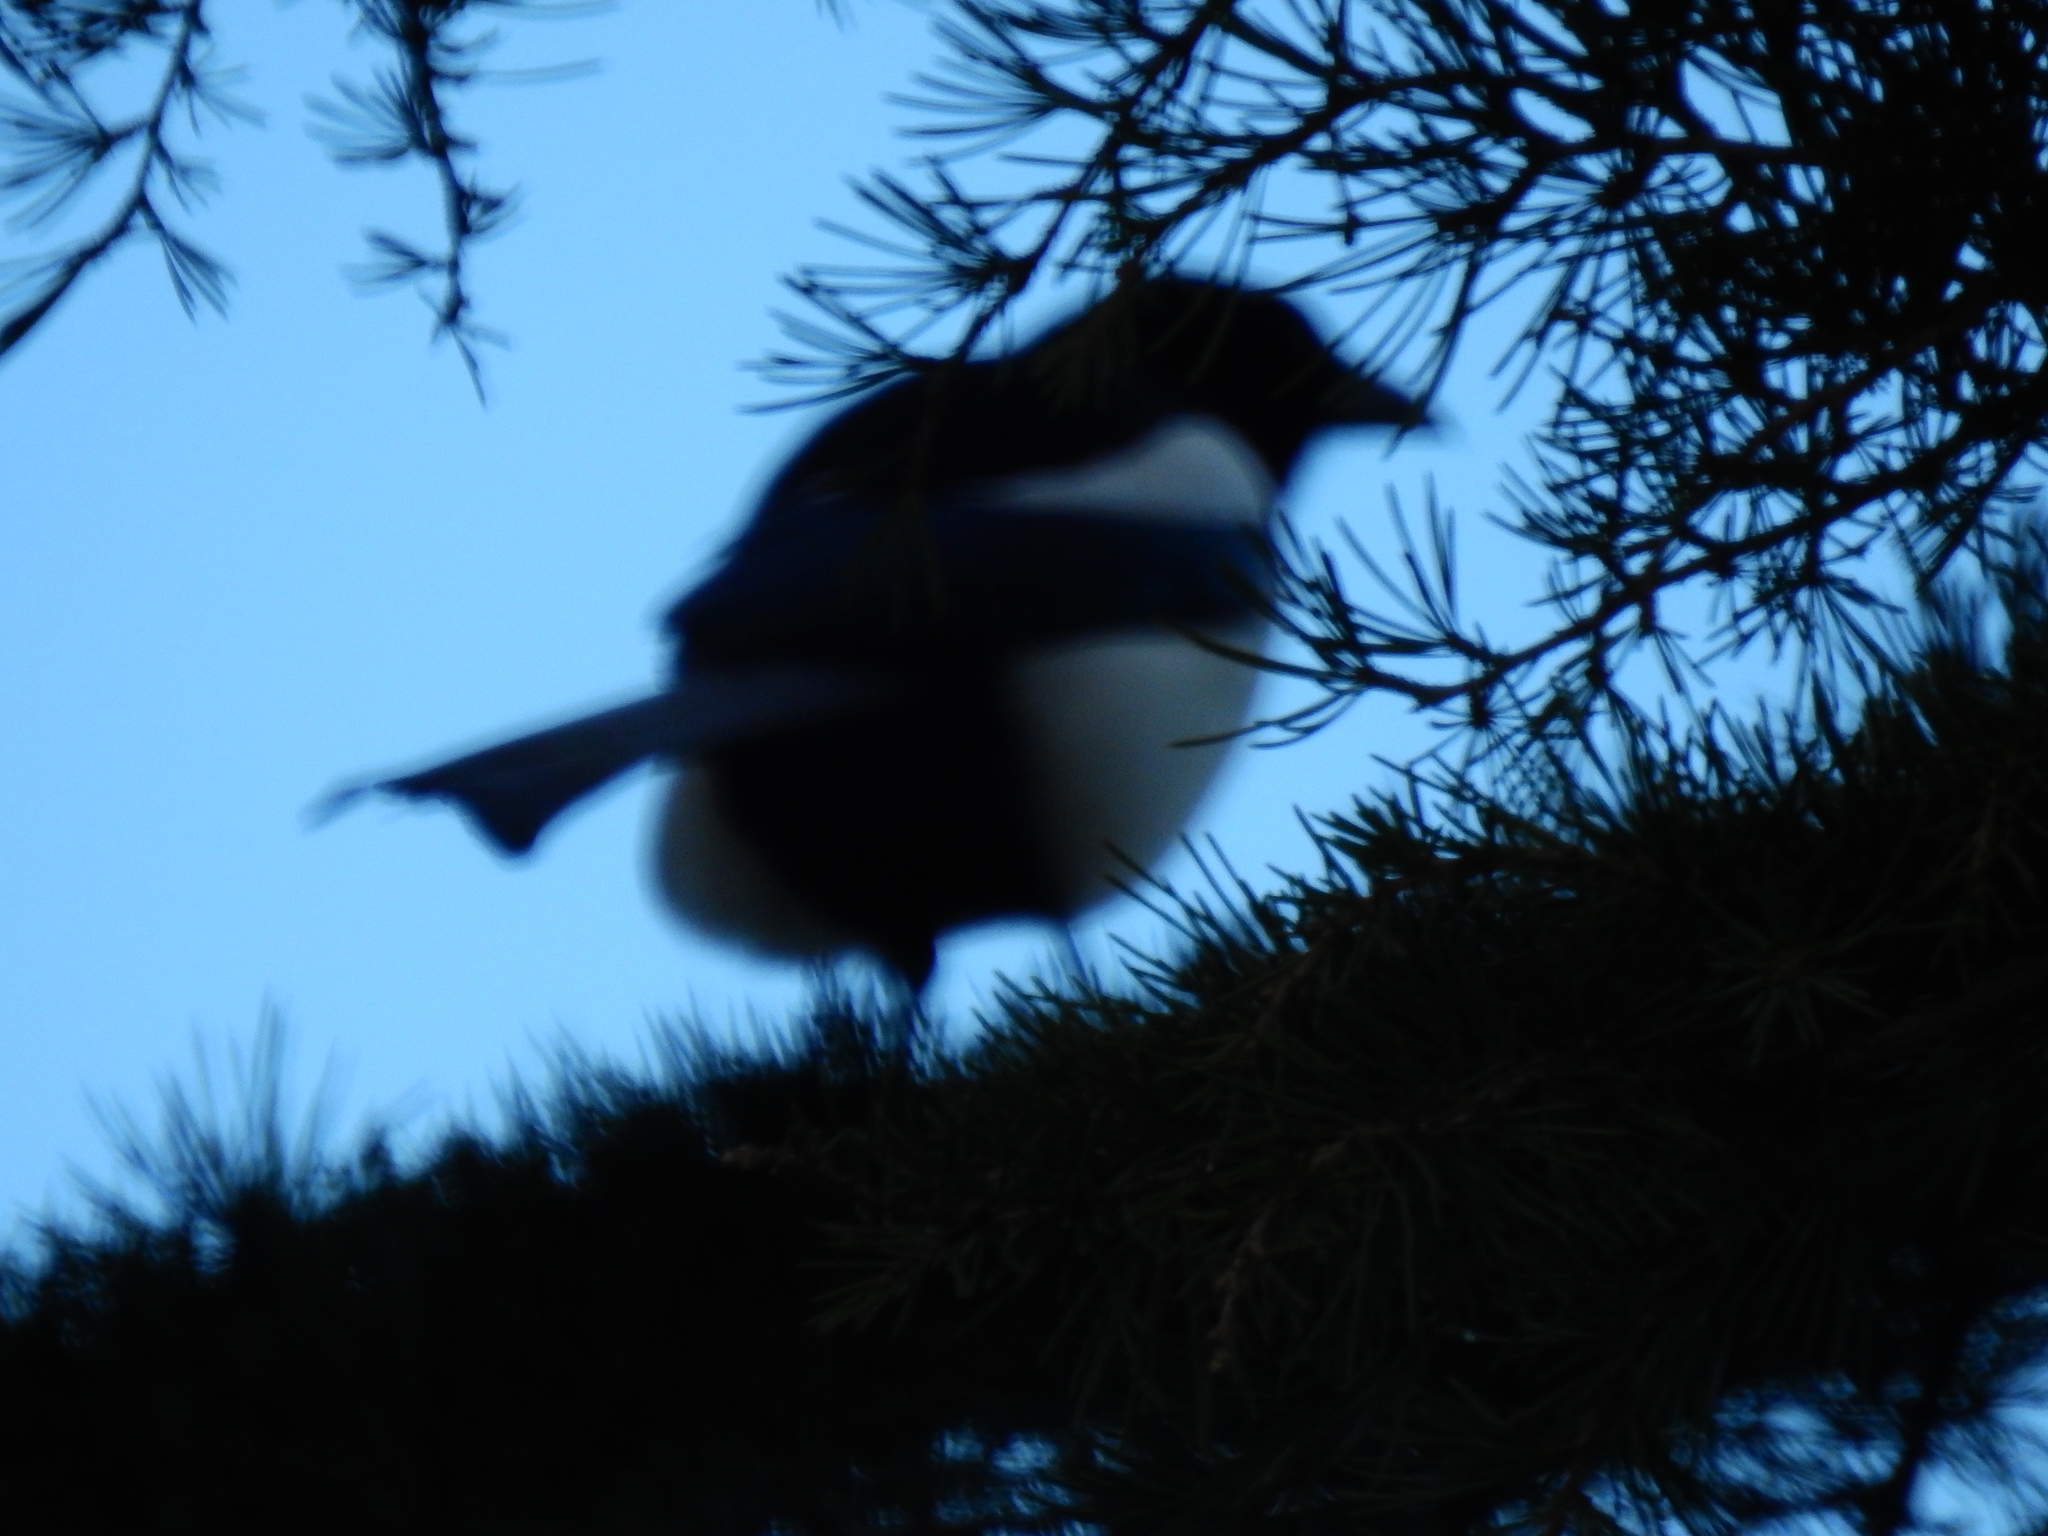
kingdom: Animalia
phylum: Chordata
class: Aves
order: Passeriformes
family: Corvidae
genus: Pica
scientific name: Pica pica
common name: Eurasian magpie
